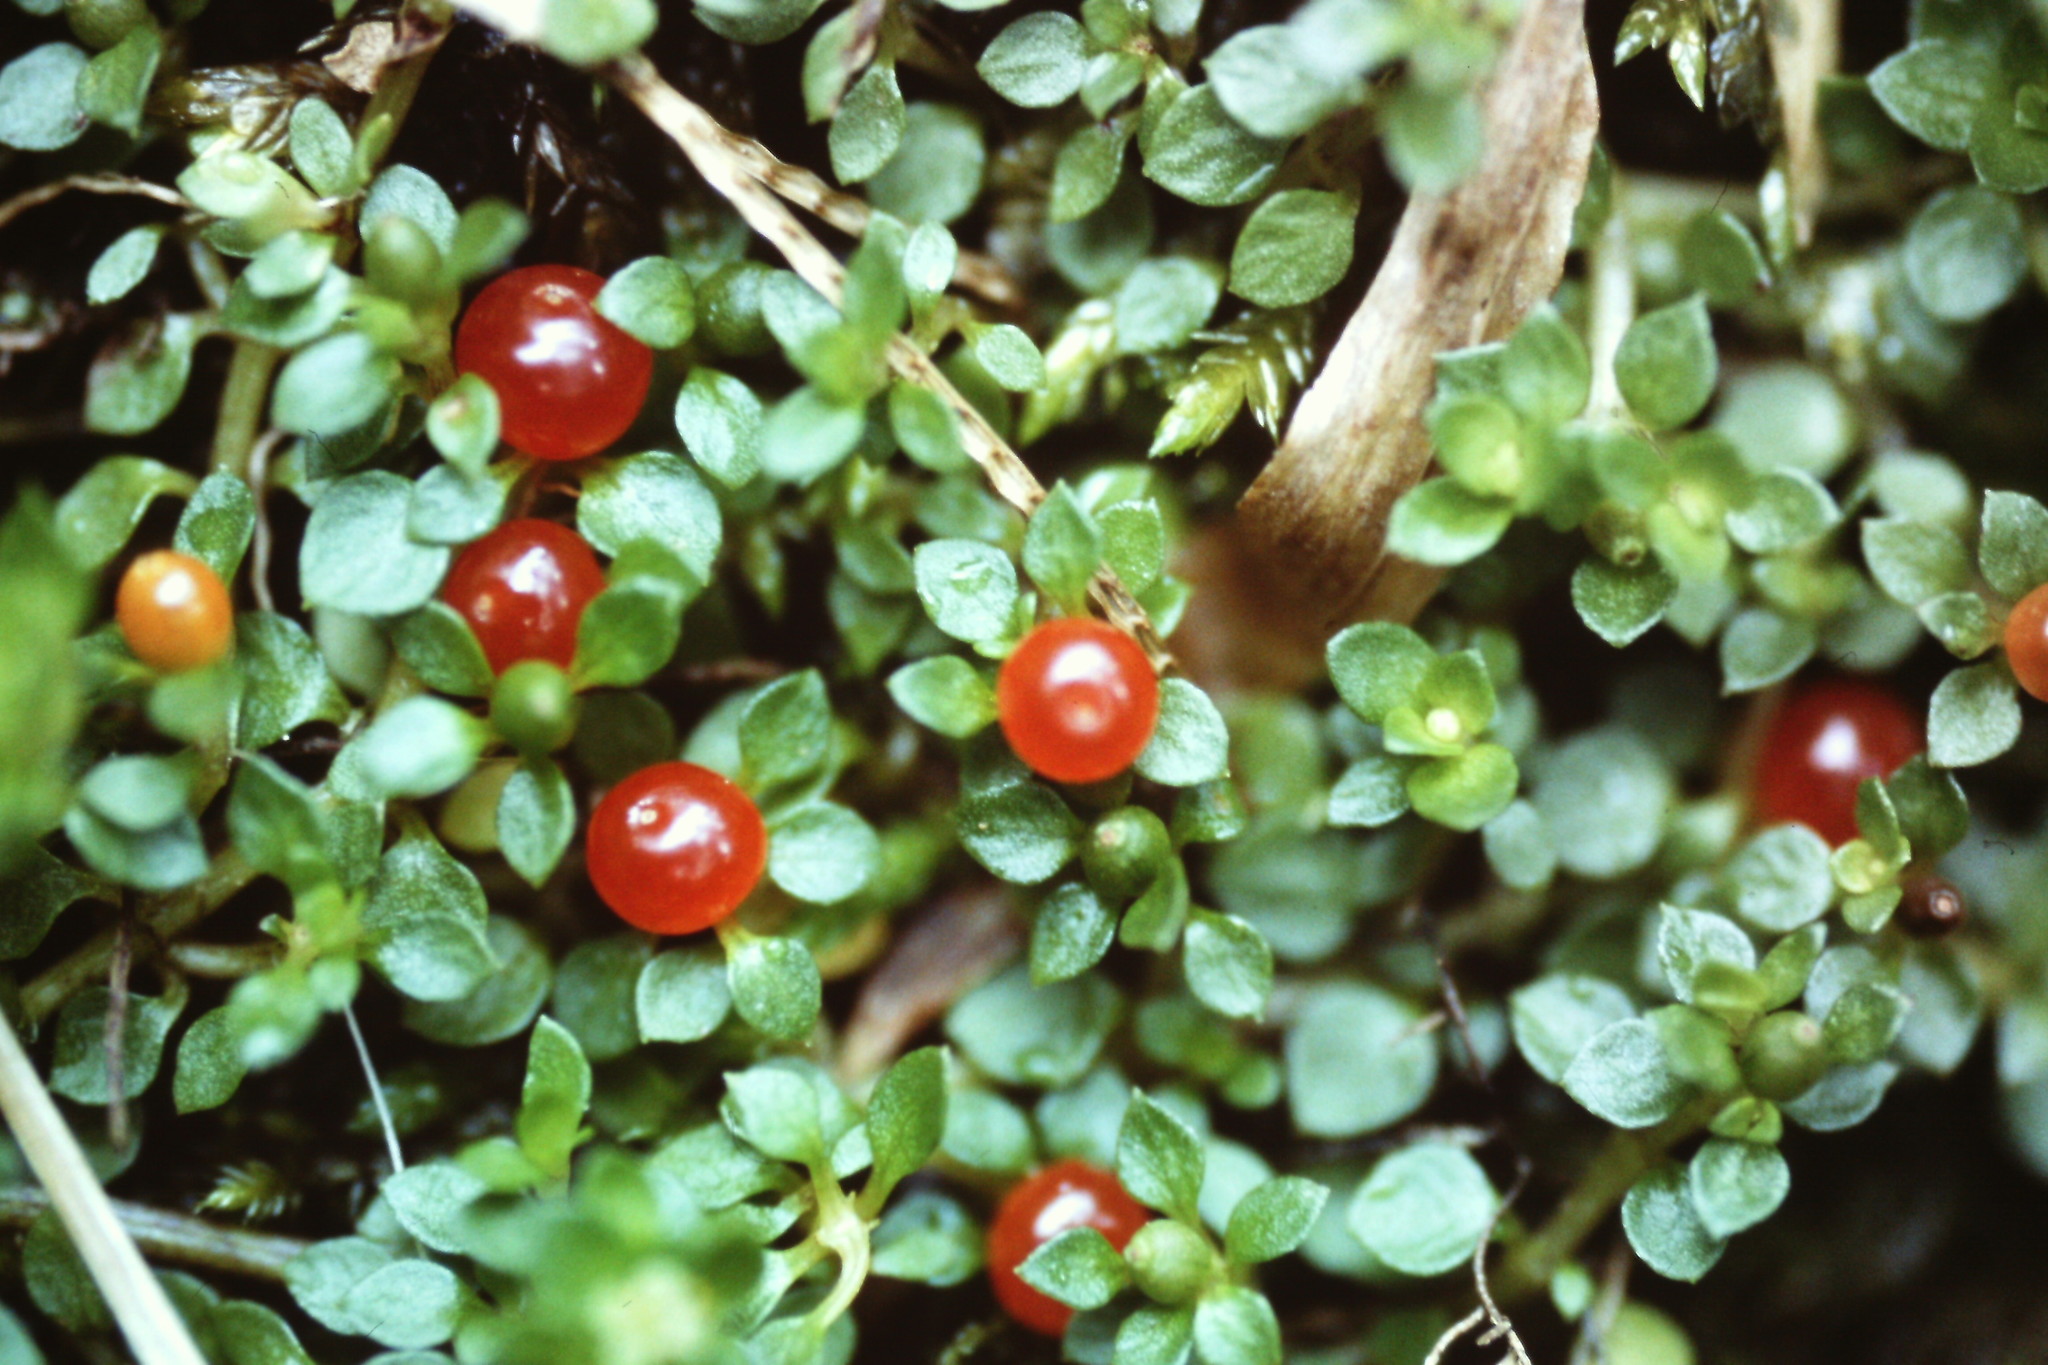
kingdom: Plantae
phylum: Tracheophyta
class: Magnoliopsida
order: Gentianales
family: Rubiaceae
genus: Nertera
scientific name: Nertera granadensis
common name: Beadplant
